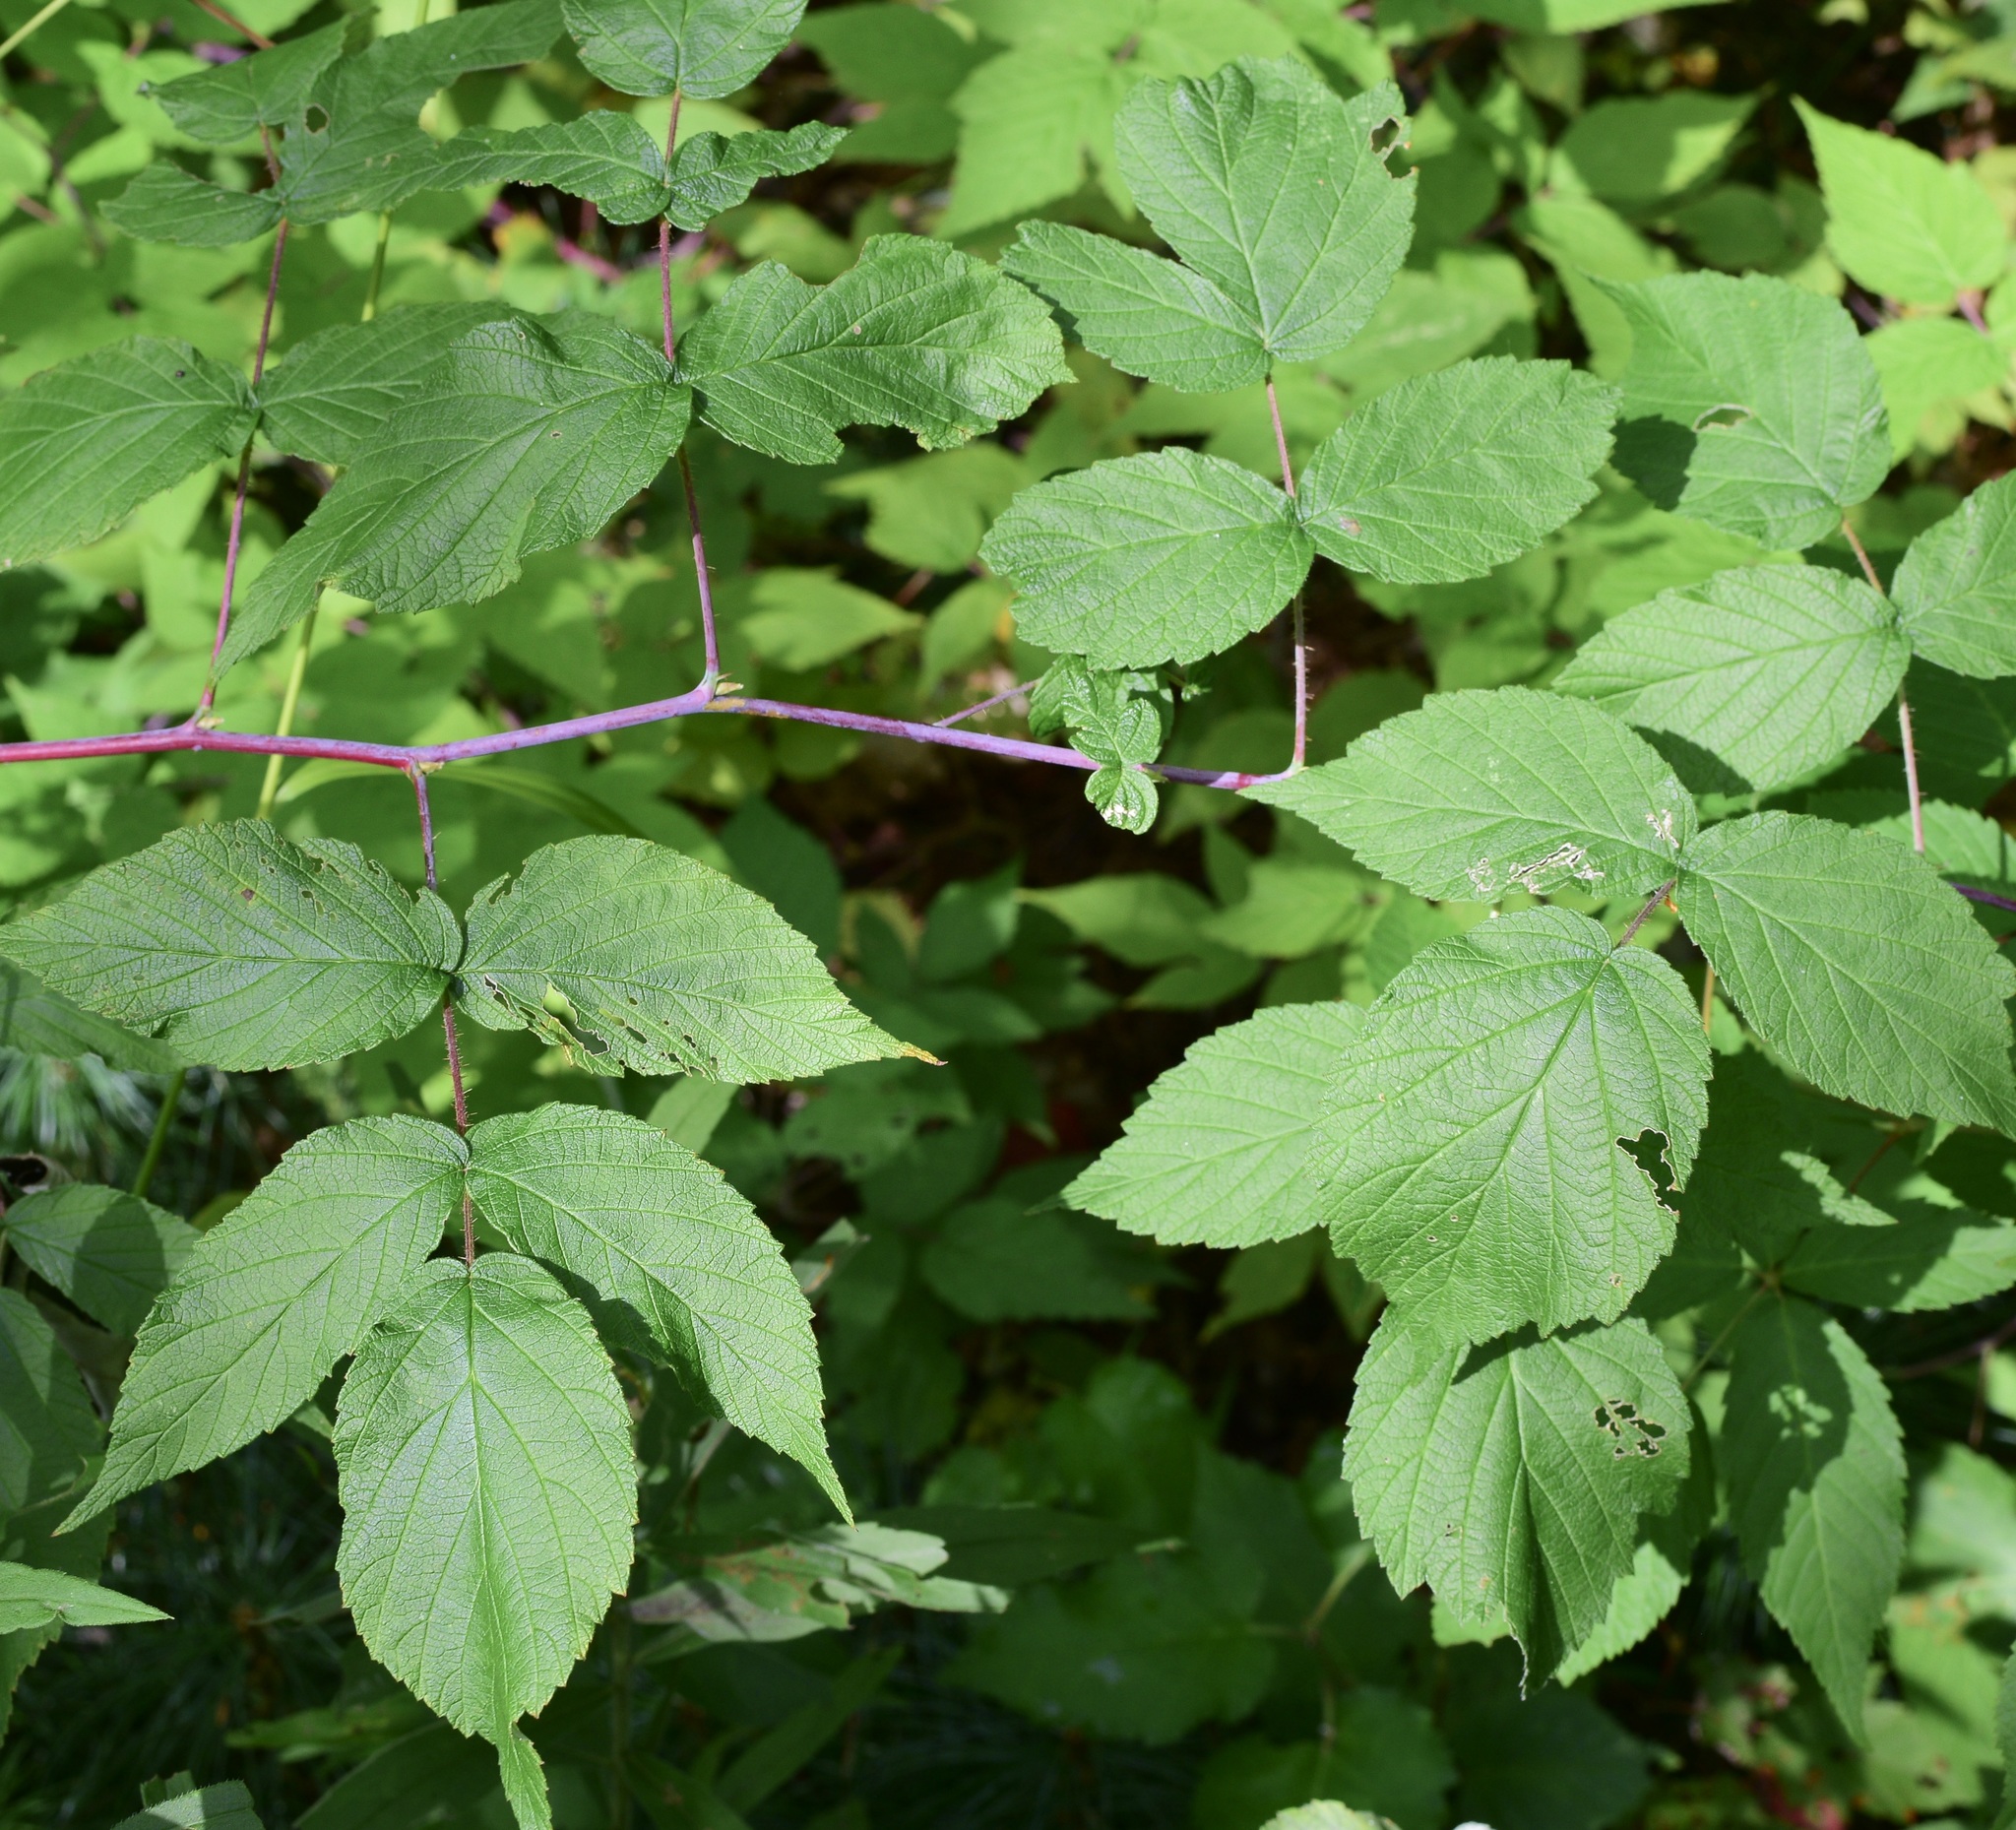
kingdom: Plantae
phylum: Tracheophyta
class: Magnoliopsida
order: Rosales
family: Rosaceae
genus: Rubus
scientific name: Rubus idaeus
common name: Raspberry
